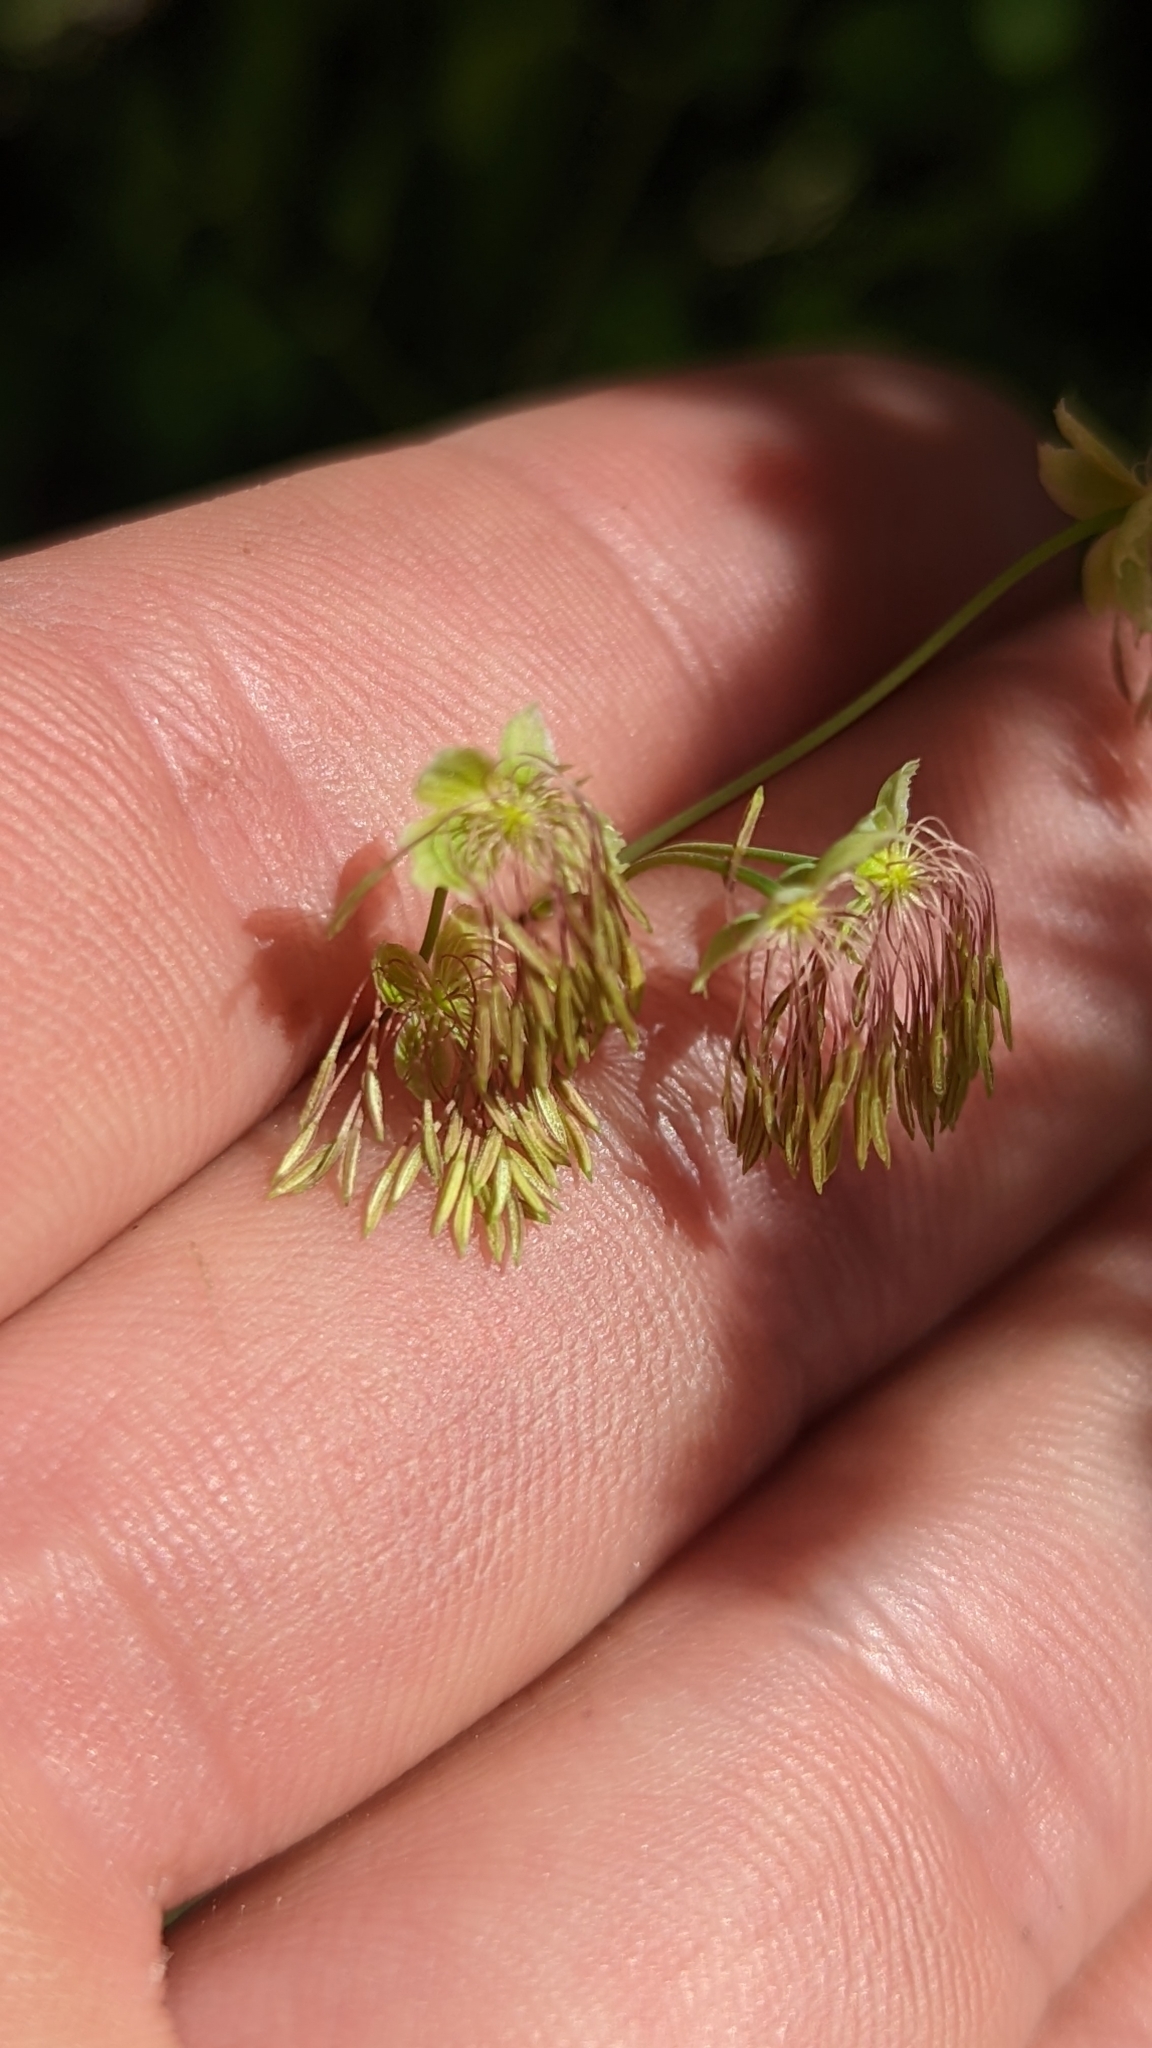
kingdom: Plantae
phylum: Tracheophyta
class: Magnoliopsida
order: Ranunculales
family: Ranunculaceae
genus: Thalictrum
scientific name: Thalictrum fendleri
